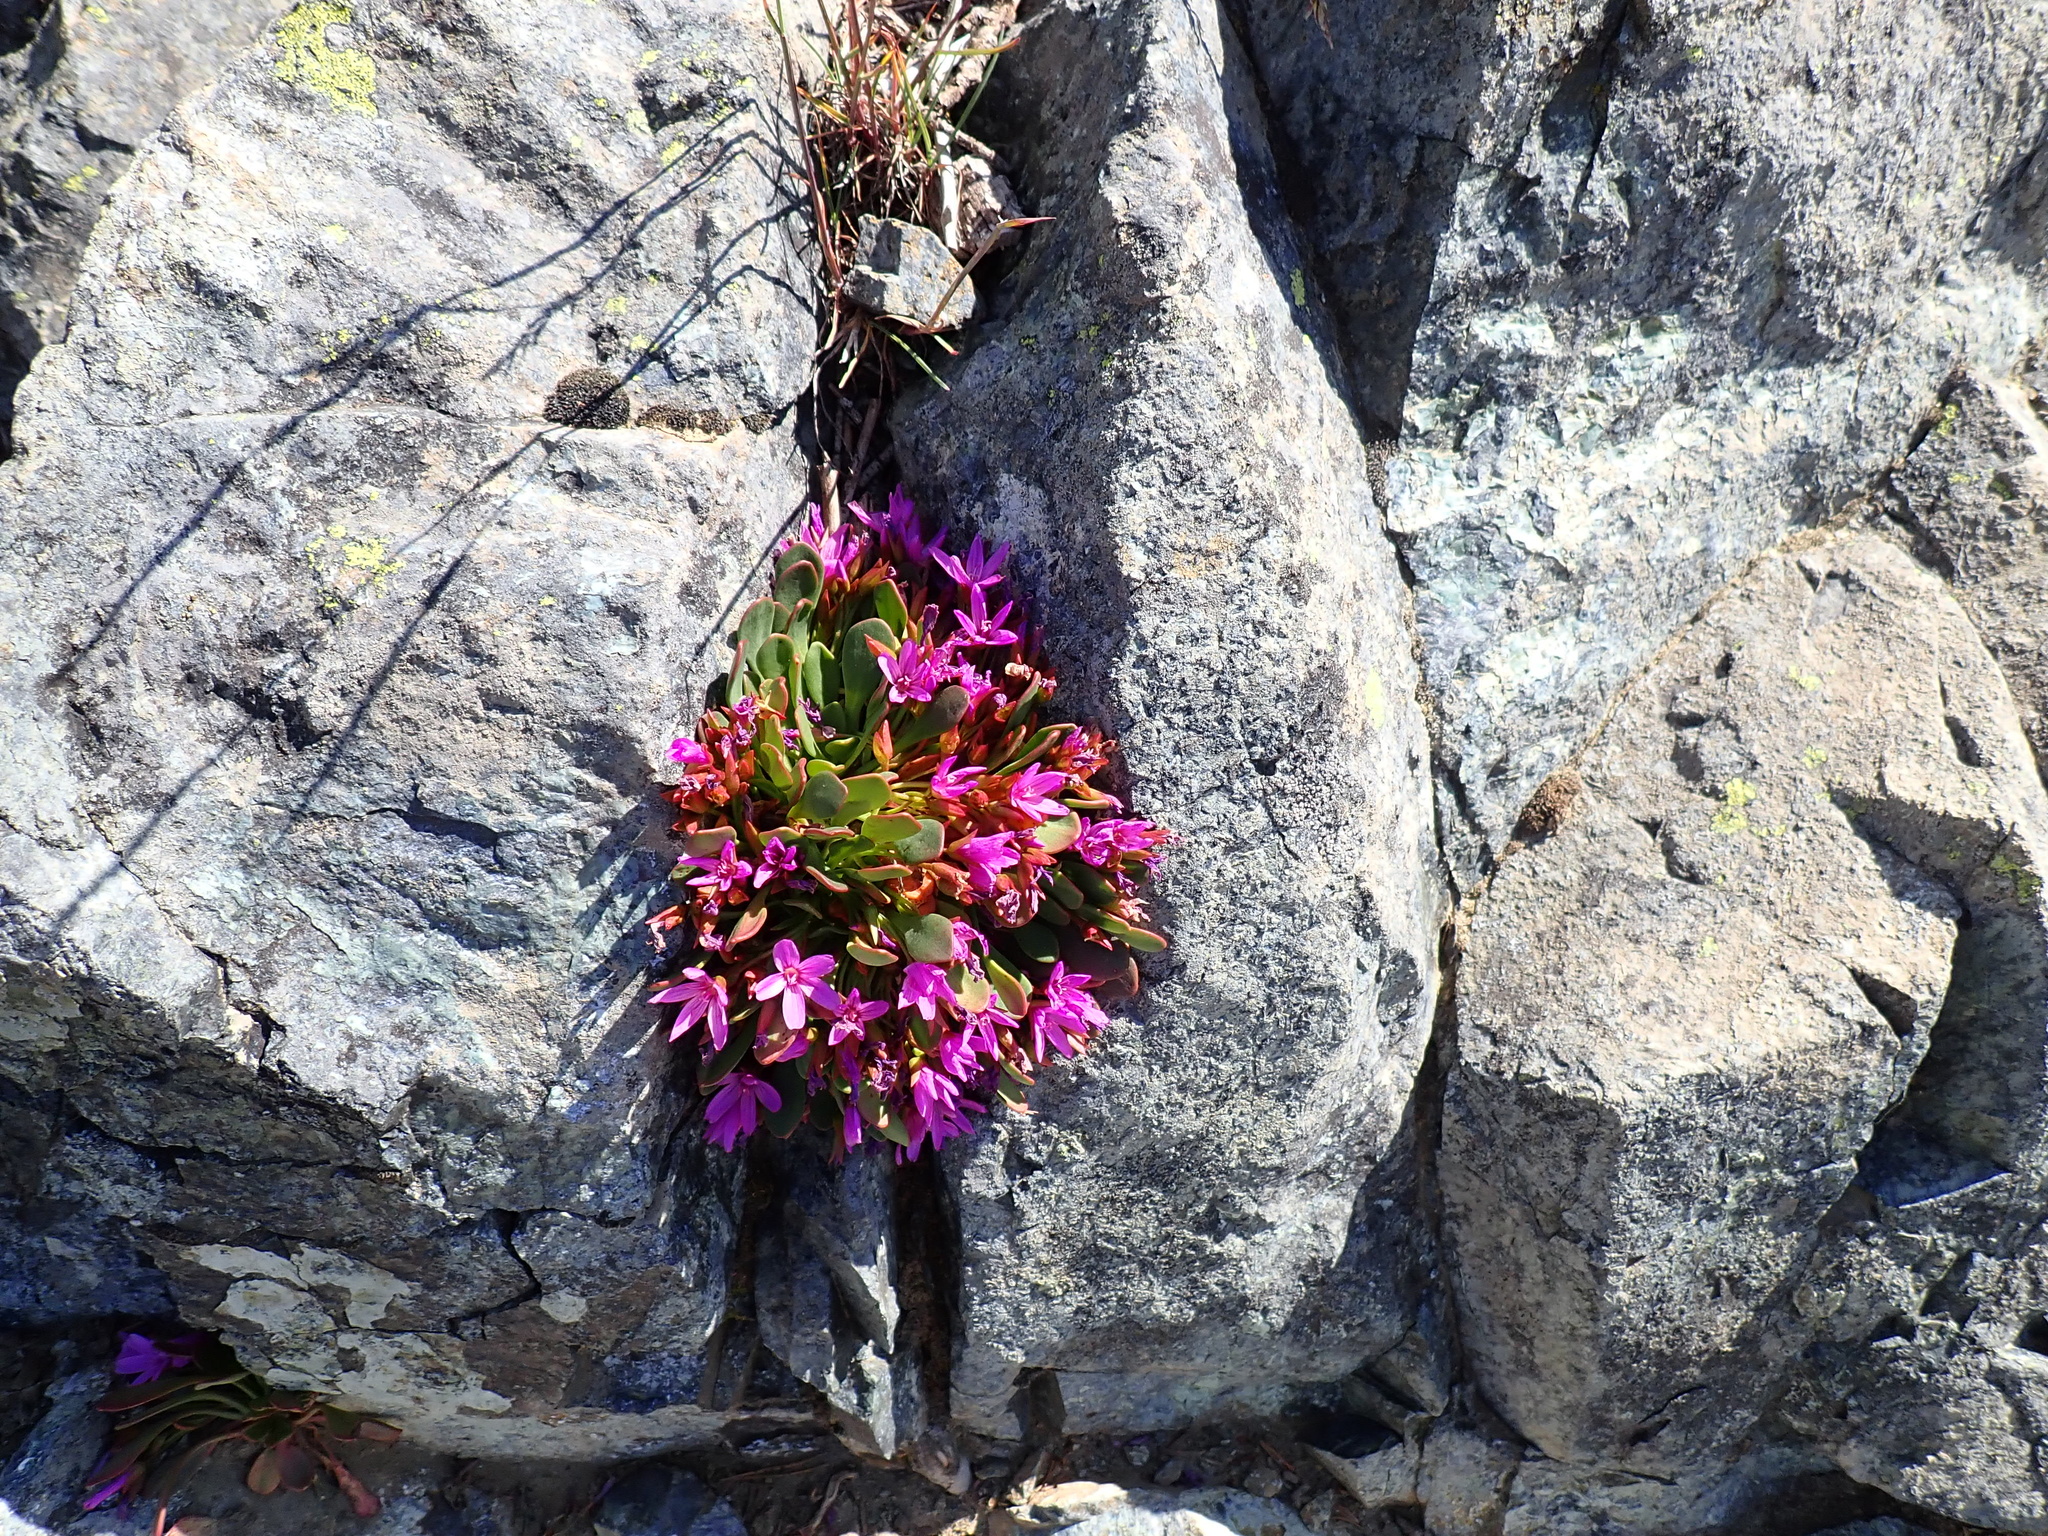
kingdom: Plantae
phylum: Tracheophyta
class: Magnoliopsida
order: Caryophyllales
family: Montiaceae
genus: Claytonia
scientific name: Claytonia megarhiza
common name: Alpine spring beauty
